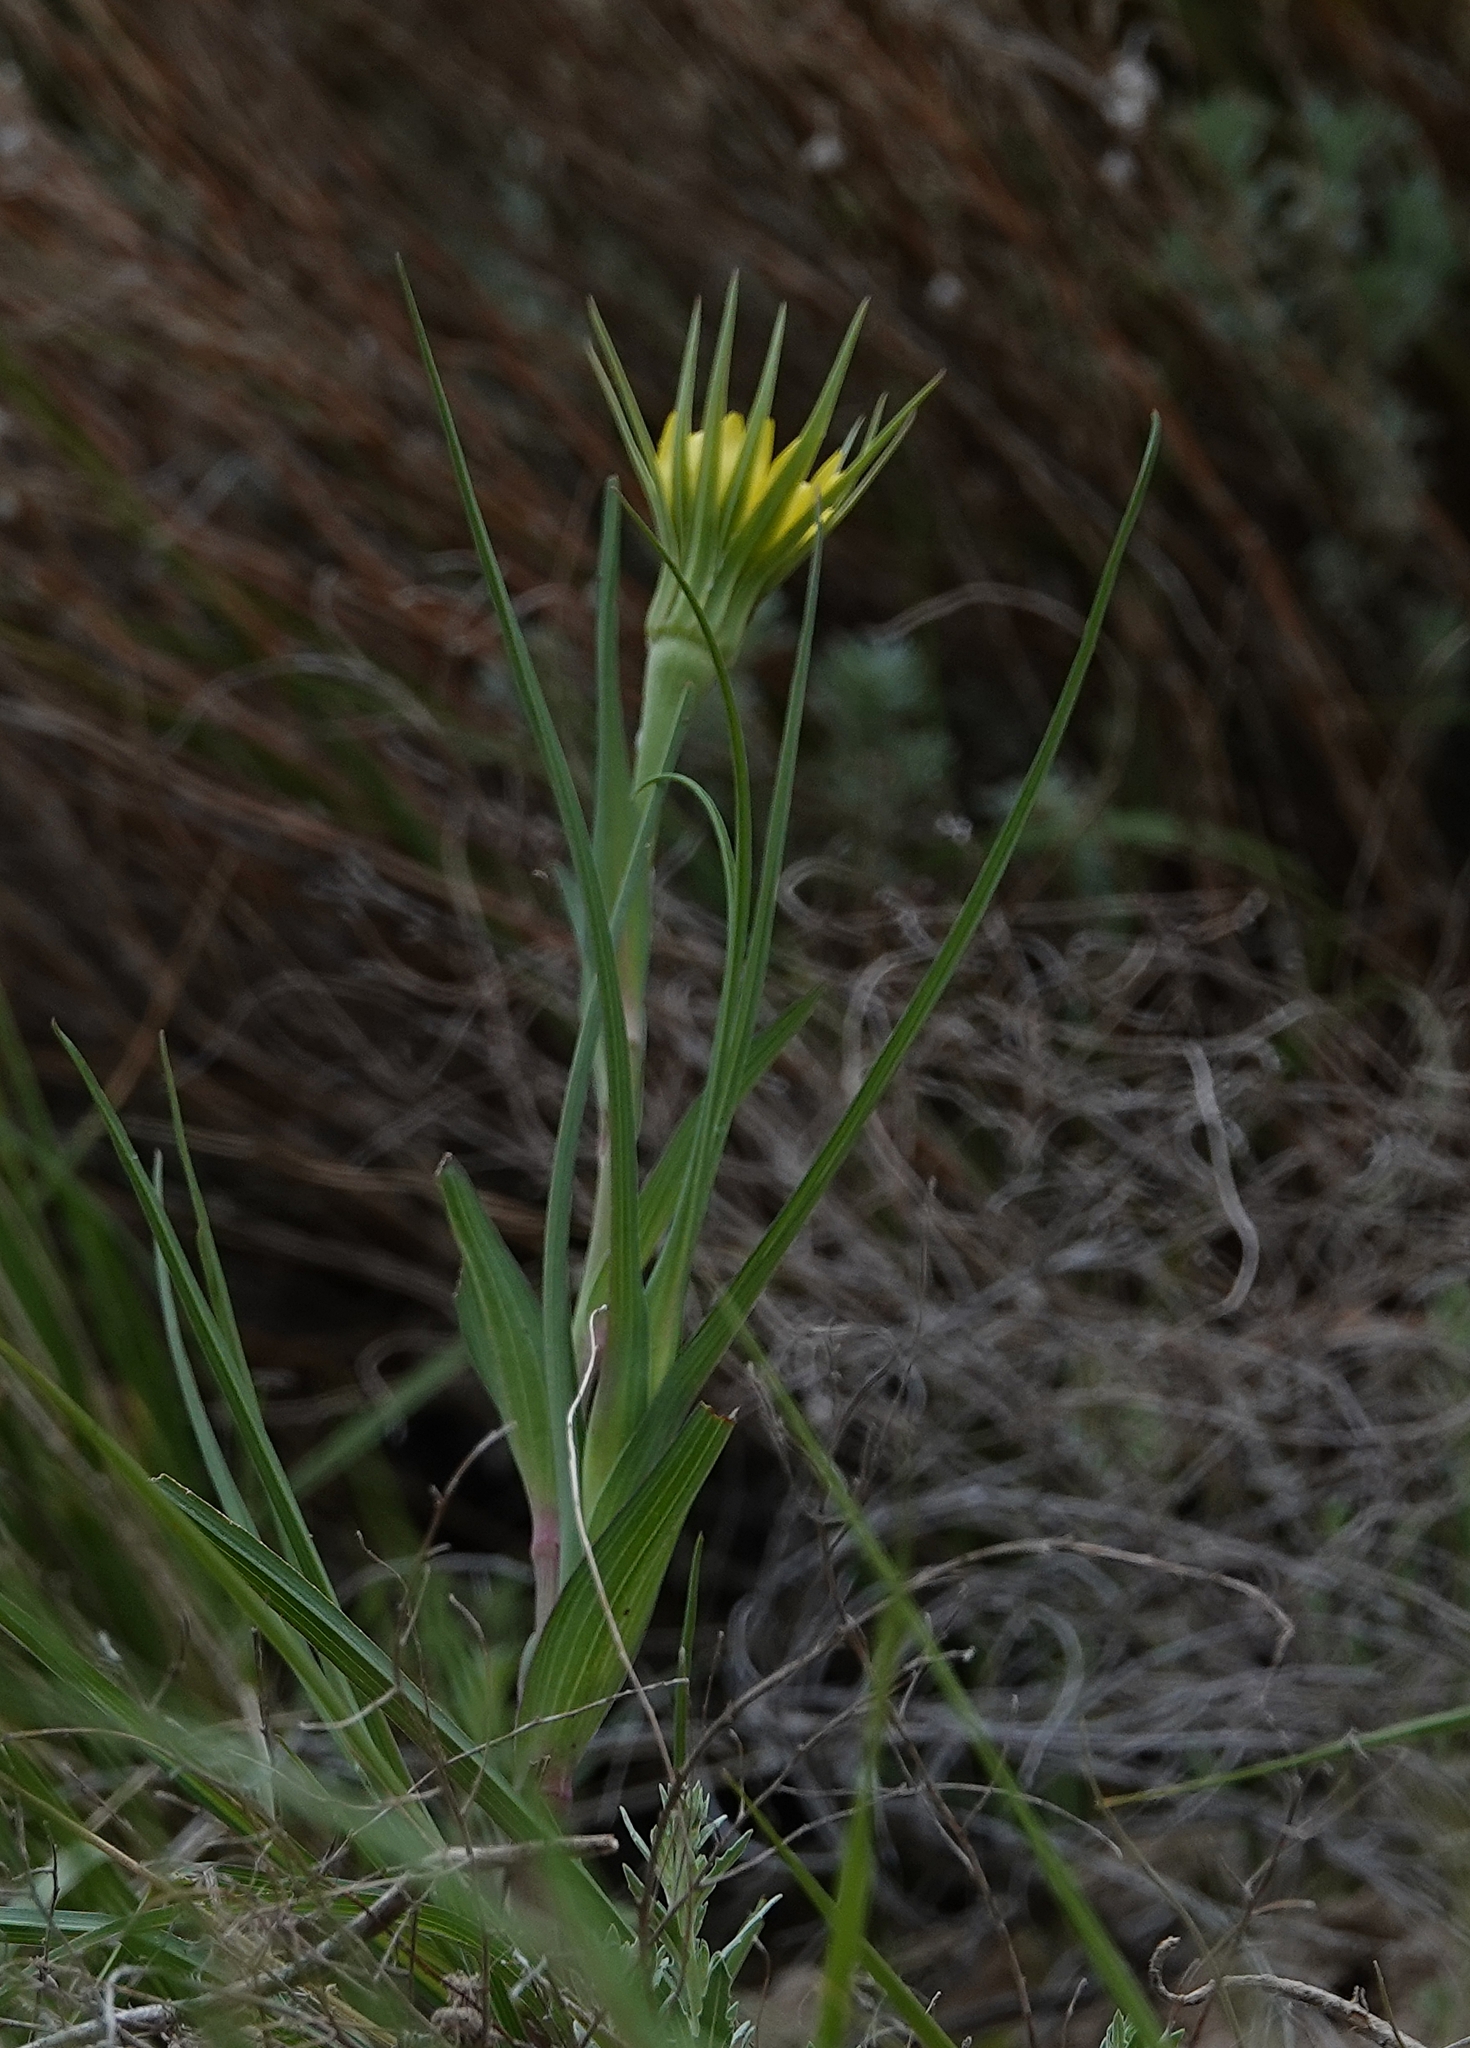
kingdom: Plantae
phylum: Tracheophyta
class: Magnoliopsida
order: Asterales
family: Asteraceae
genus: Tragopogon
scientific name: Tragopogon dubius
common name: Yellow salsify
